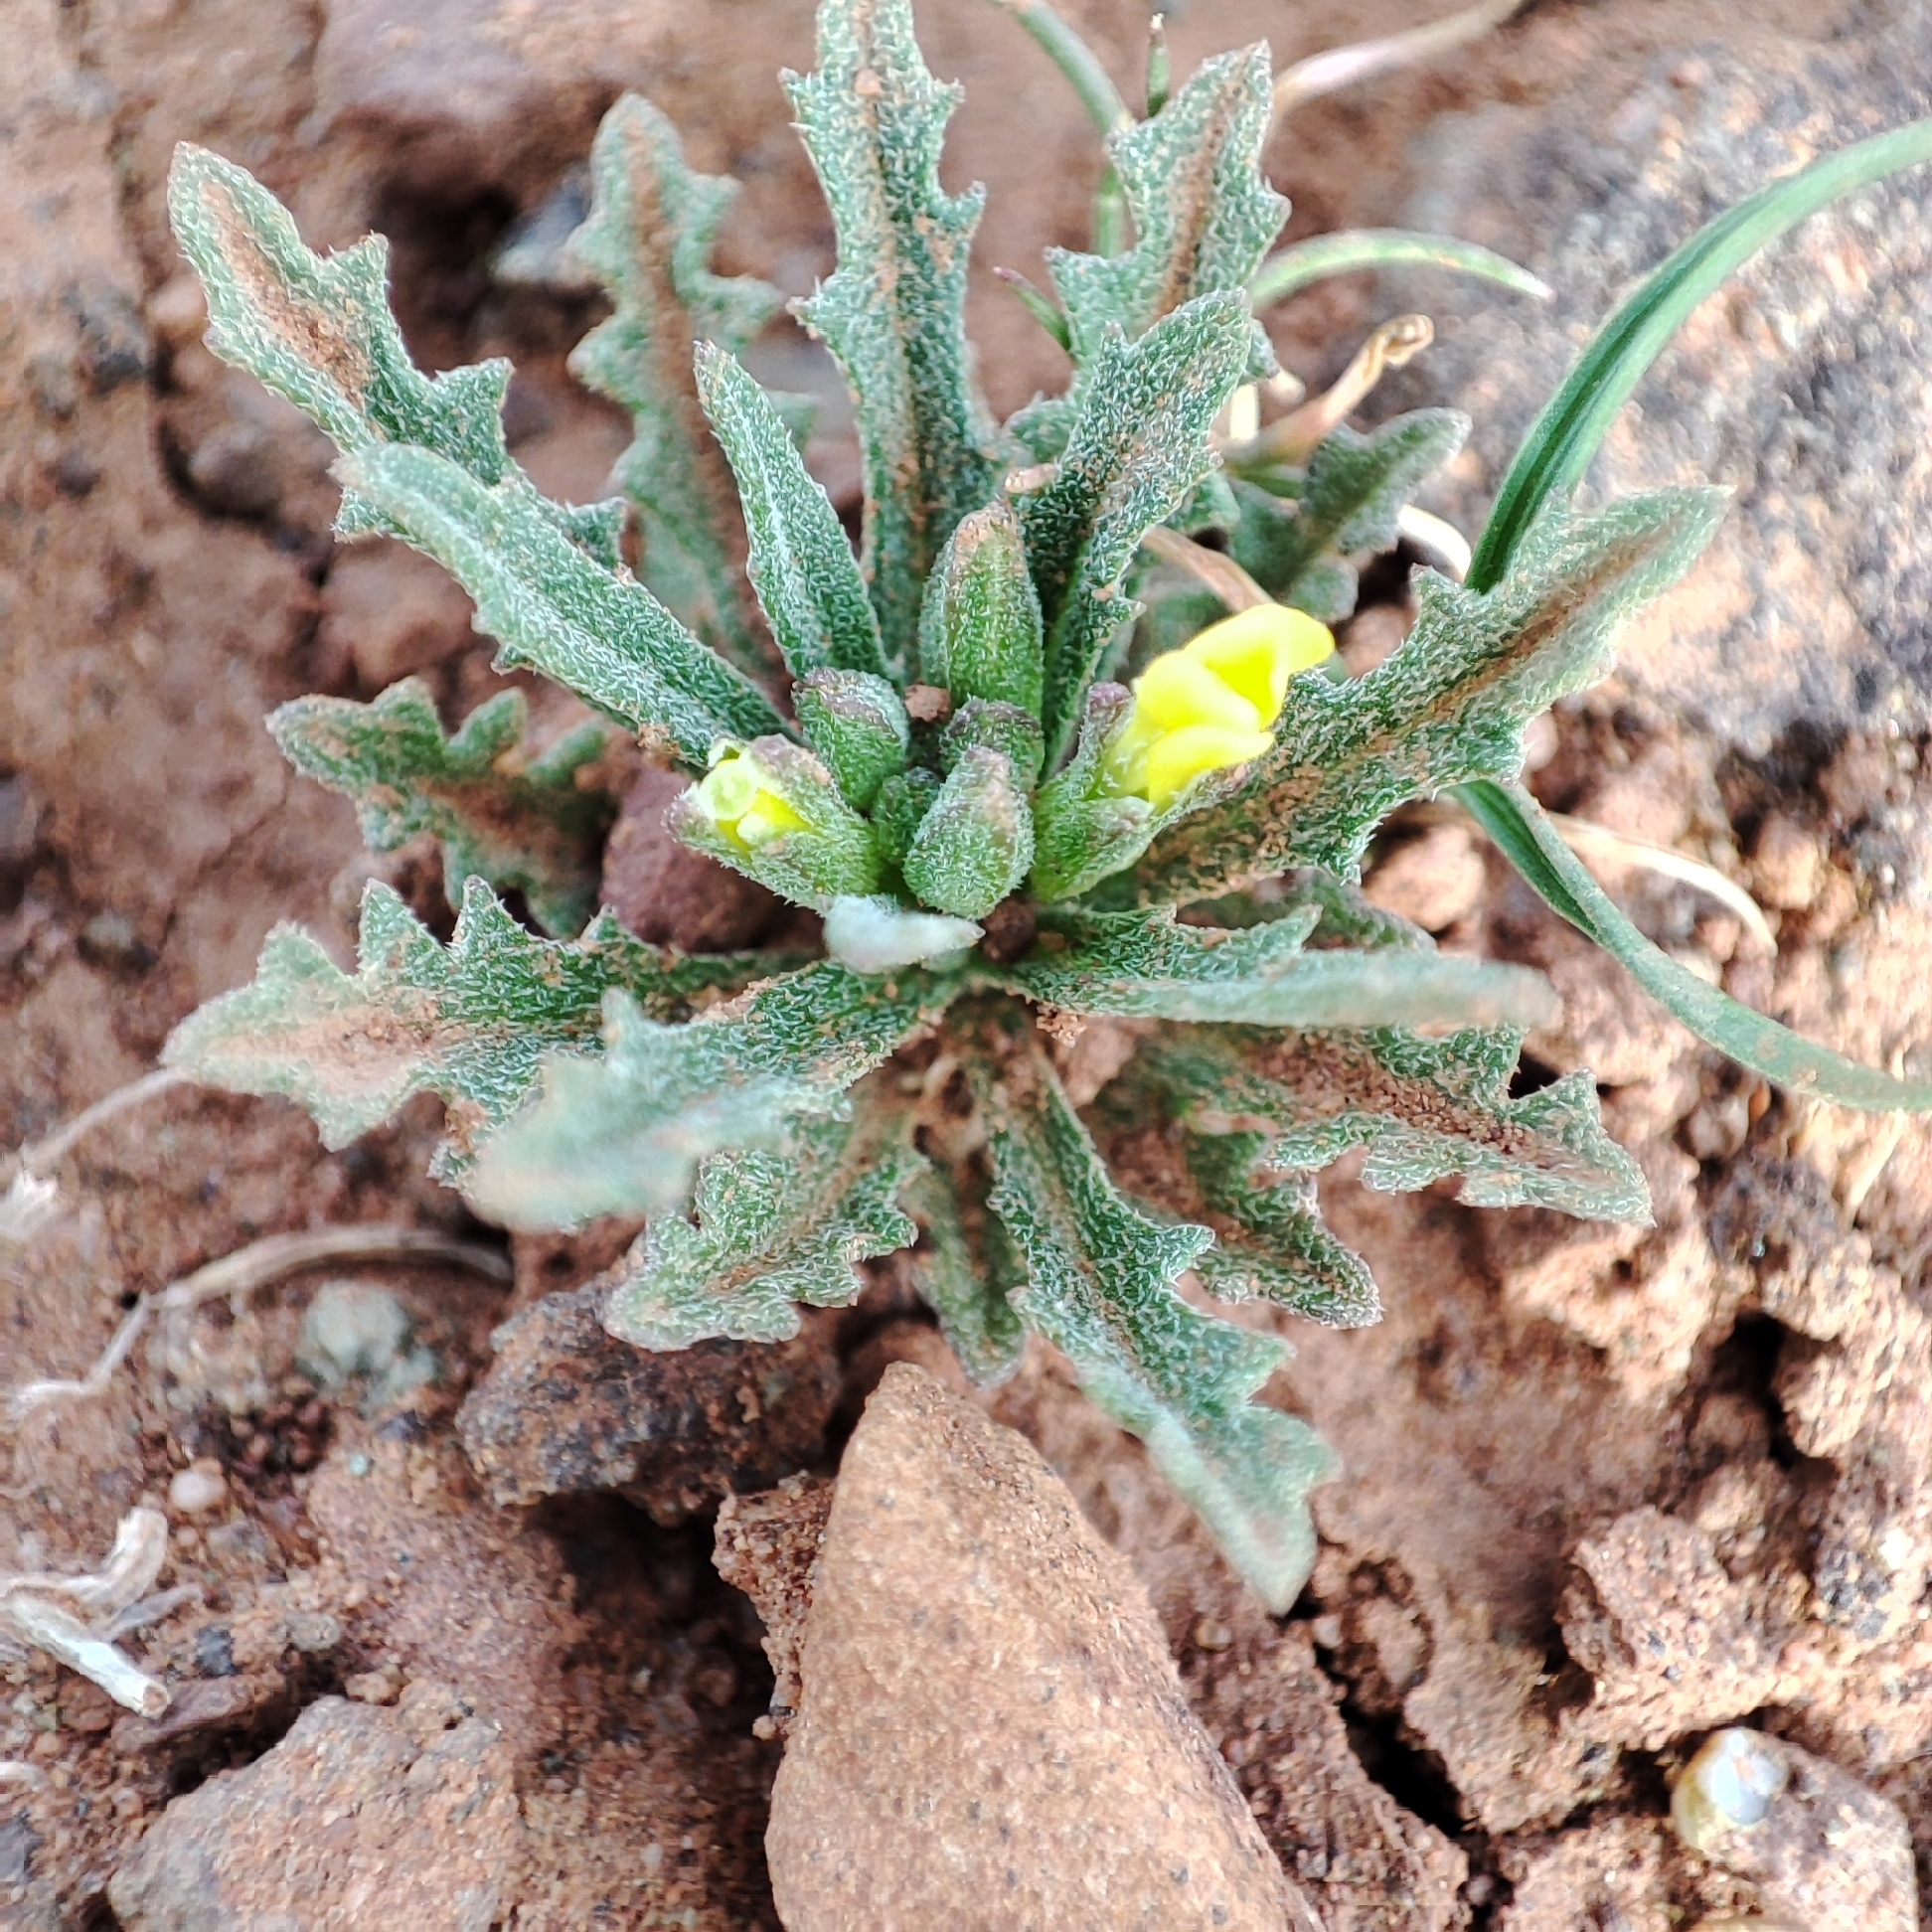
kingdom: Plantae
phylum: Tracheophyta
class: Magnoliopsida
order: Brassicales
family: Brassicaceae
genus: Erysimum
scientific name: Erysimum incanum
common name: Hoary treacle mustard
